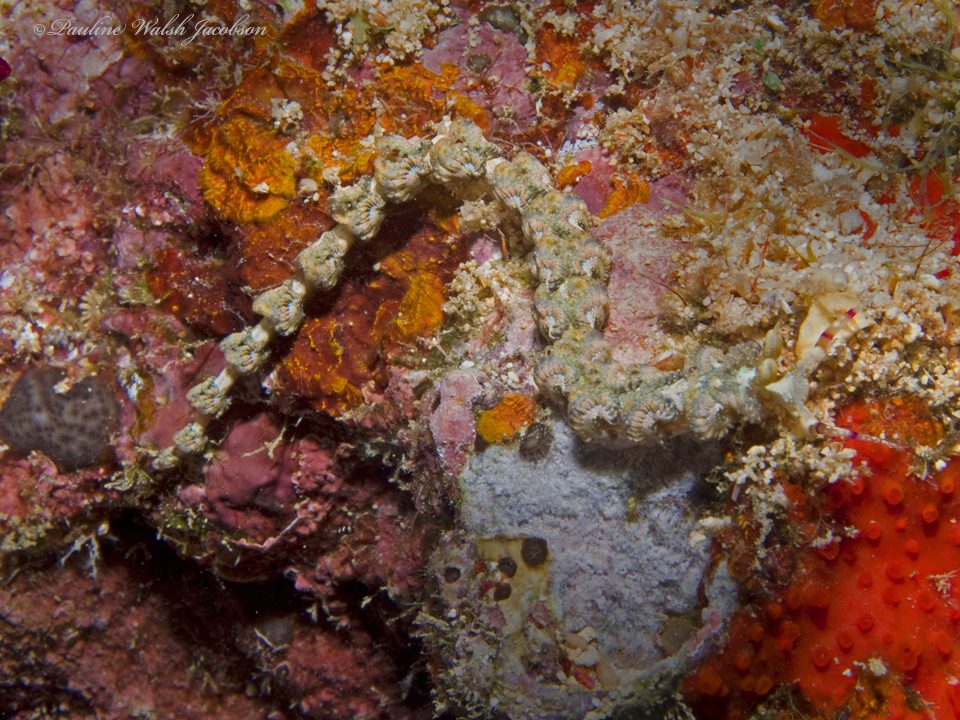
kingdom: Animalia
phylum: Mollusca
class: Gastropoda
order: Nudibranchia
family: Facelinidae
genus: Pteraeolidia
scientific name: Pteraeolidia semperi
